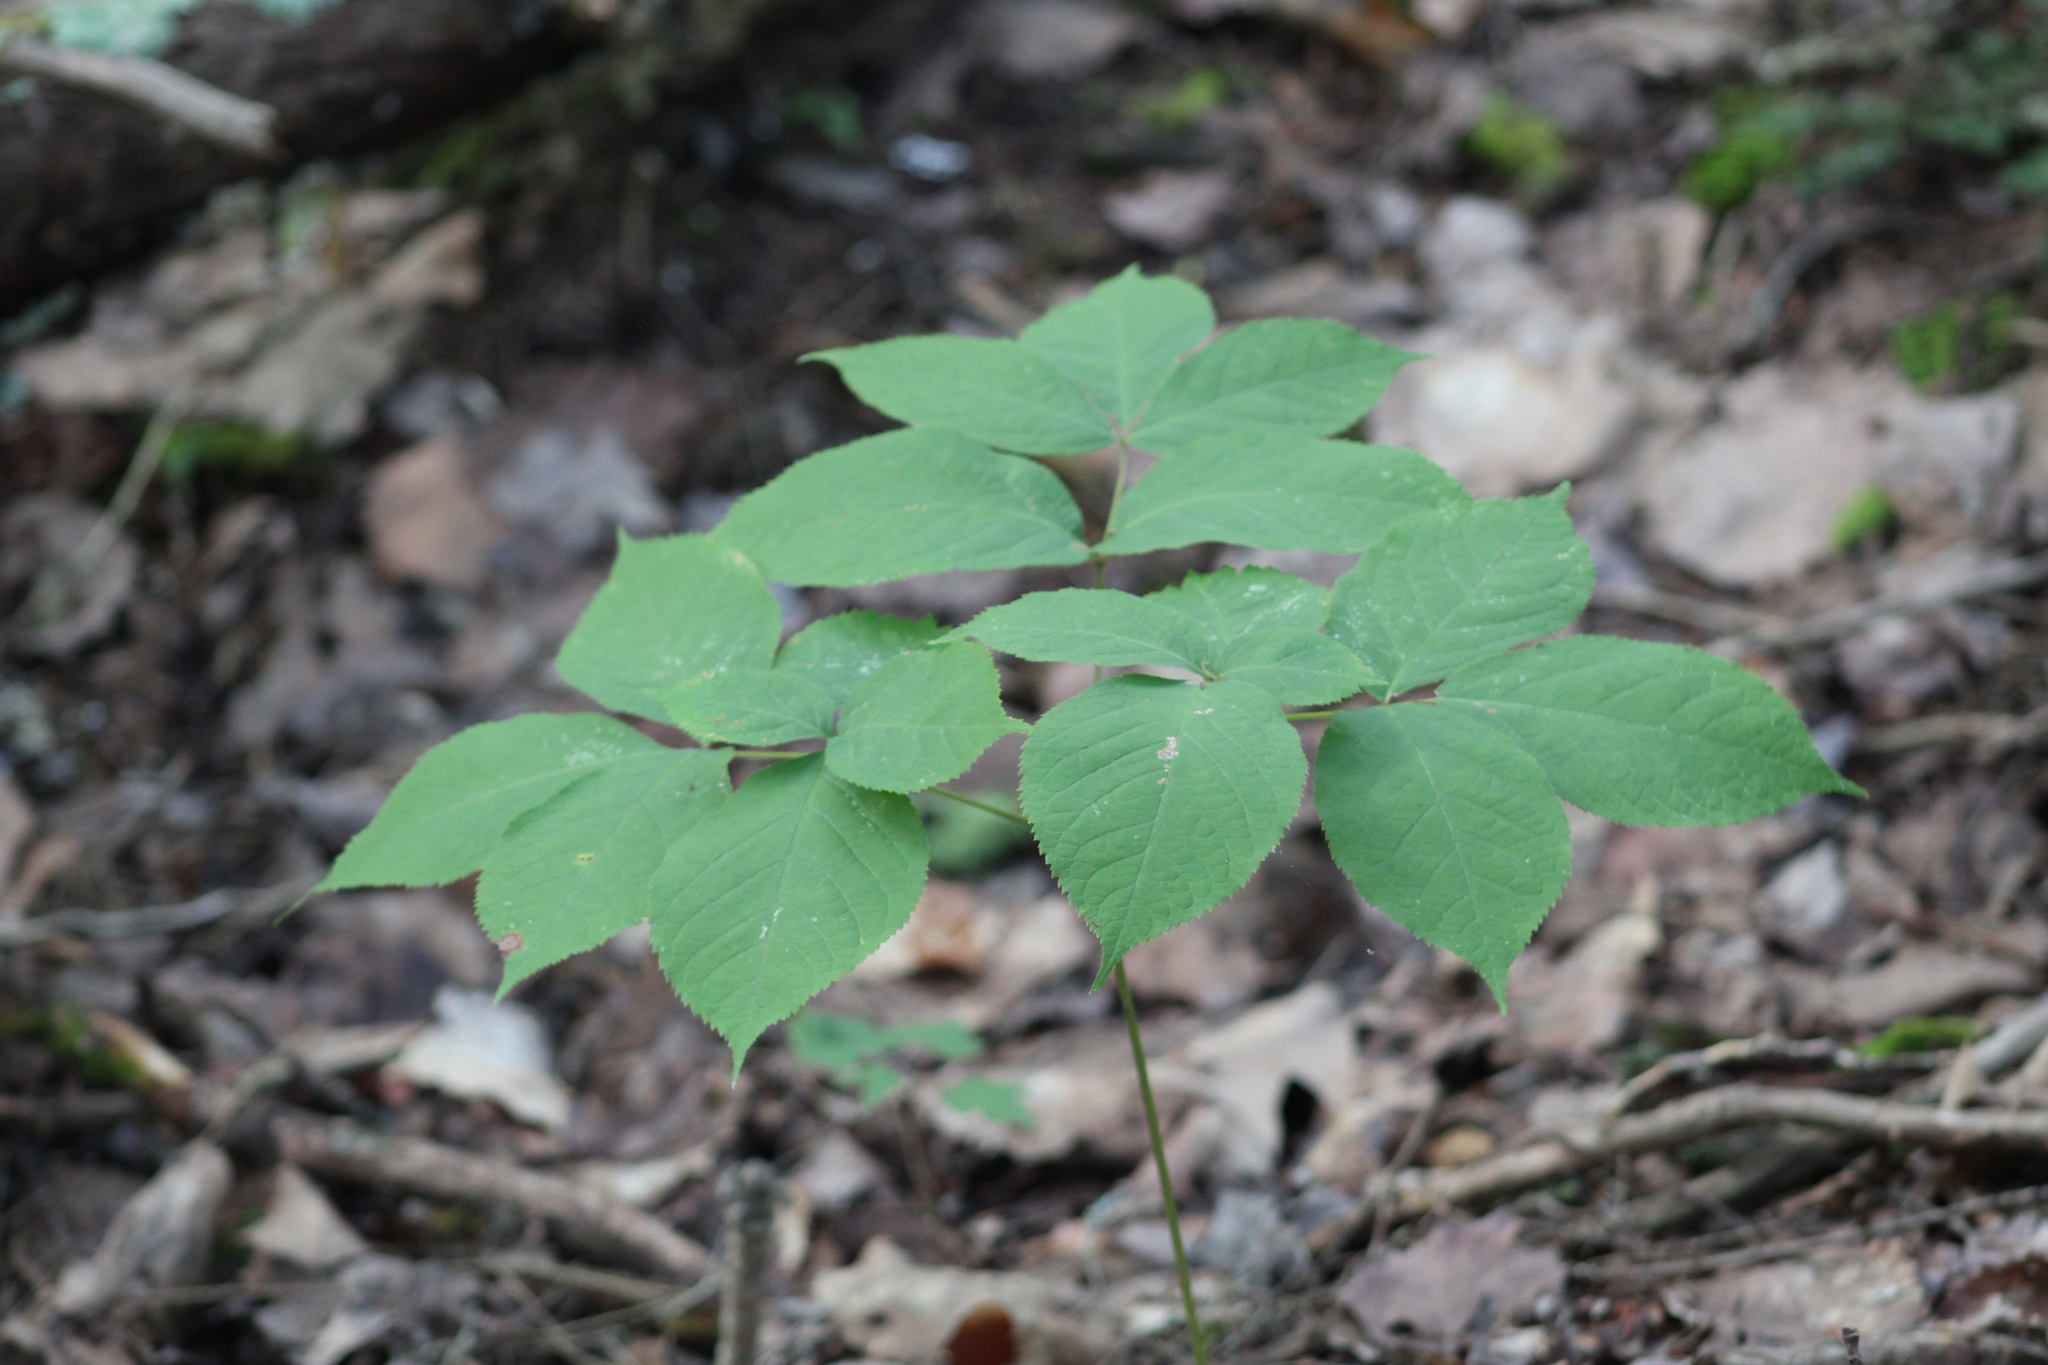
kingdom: Plantae
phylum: Tracheophyta
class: Magnoliopsida
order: Apiales
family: Araliaceae
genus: Aralia
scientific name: Aralia nudicaulis
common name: Wild sarsaparilla
